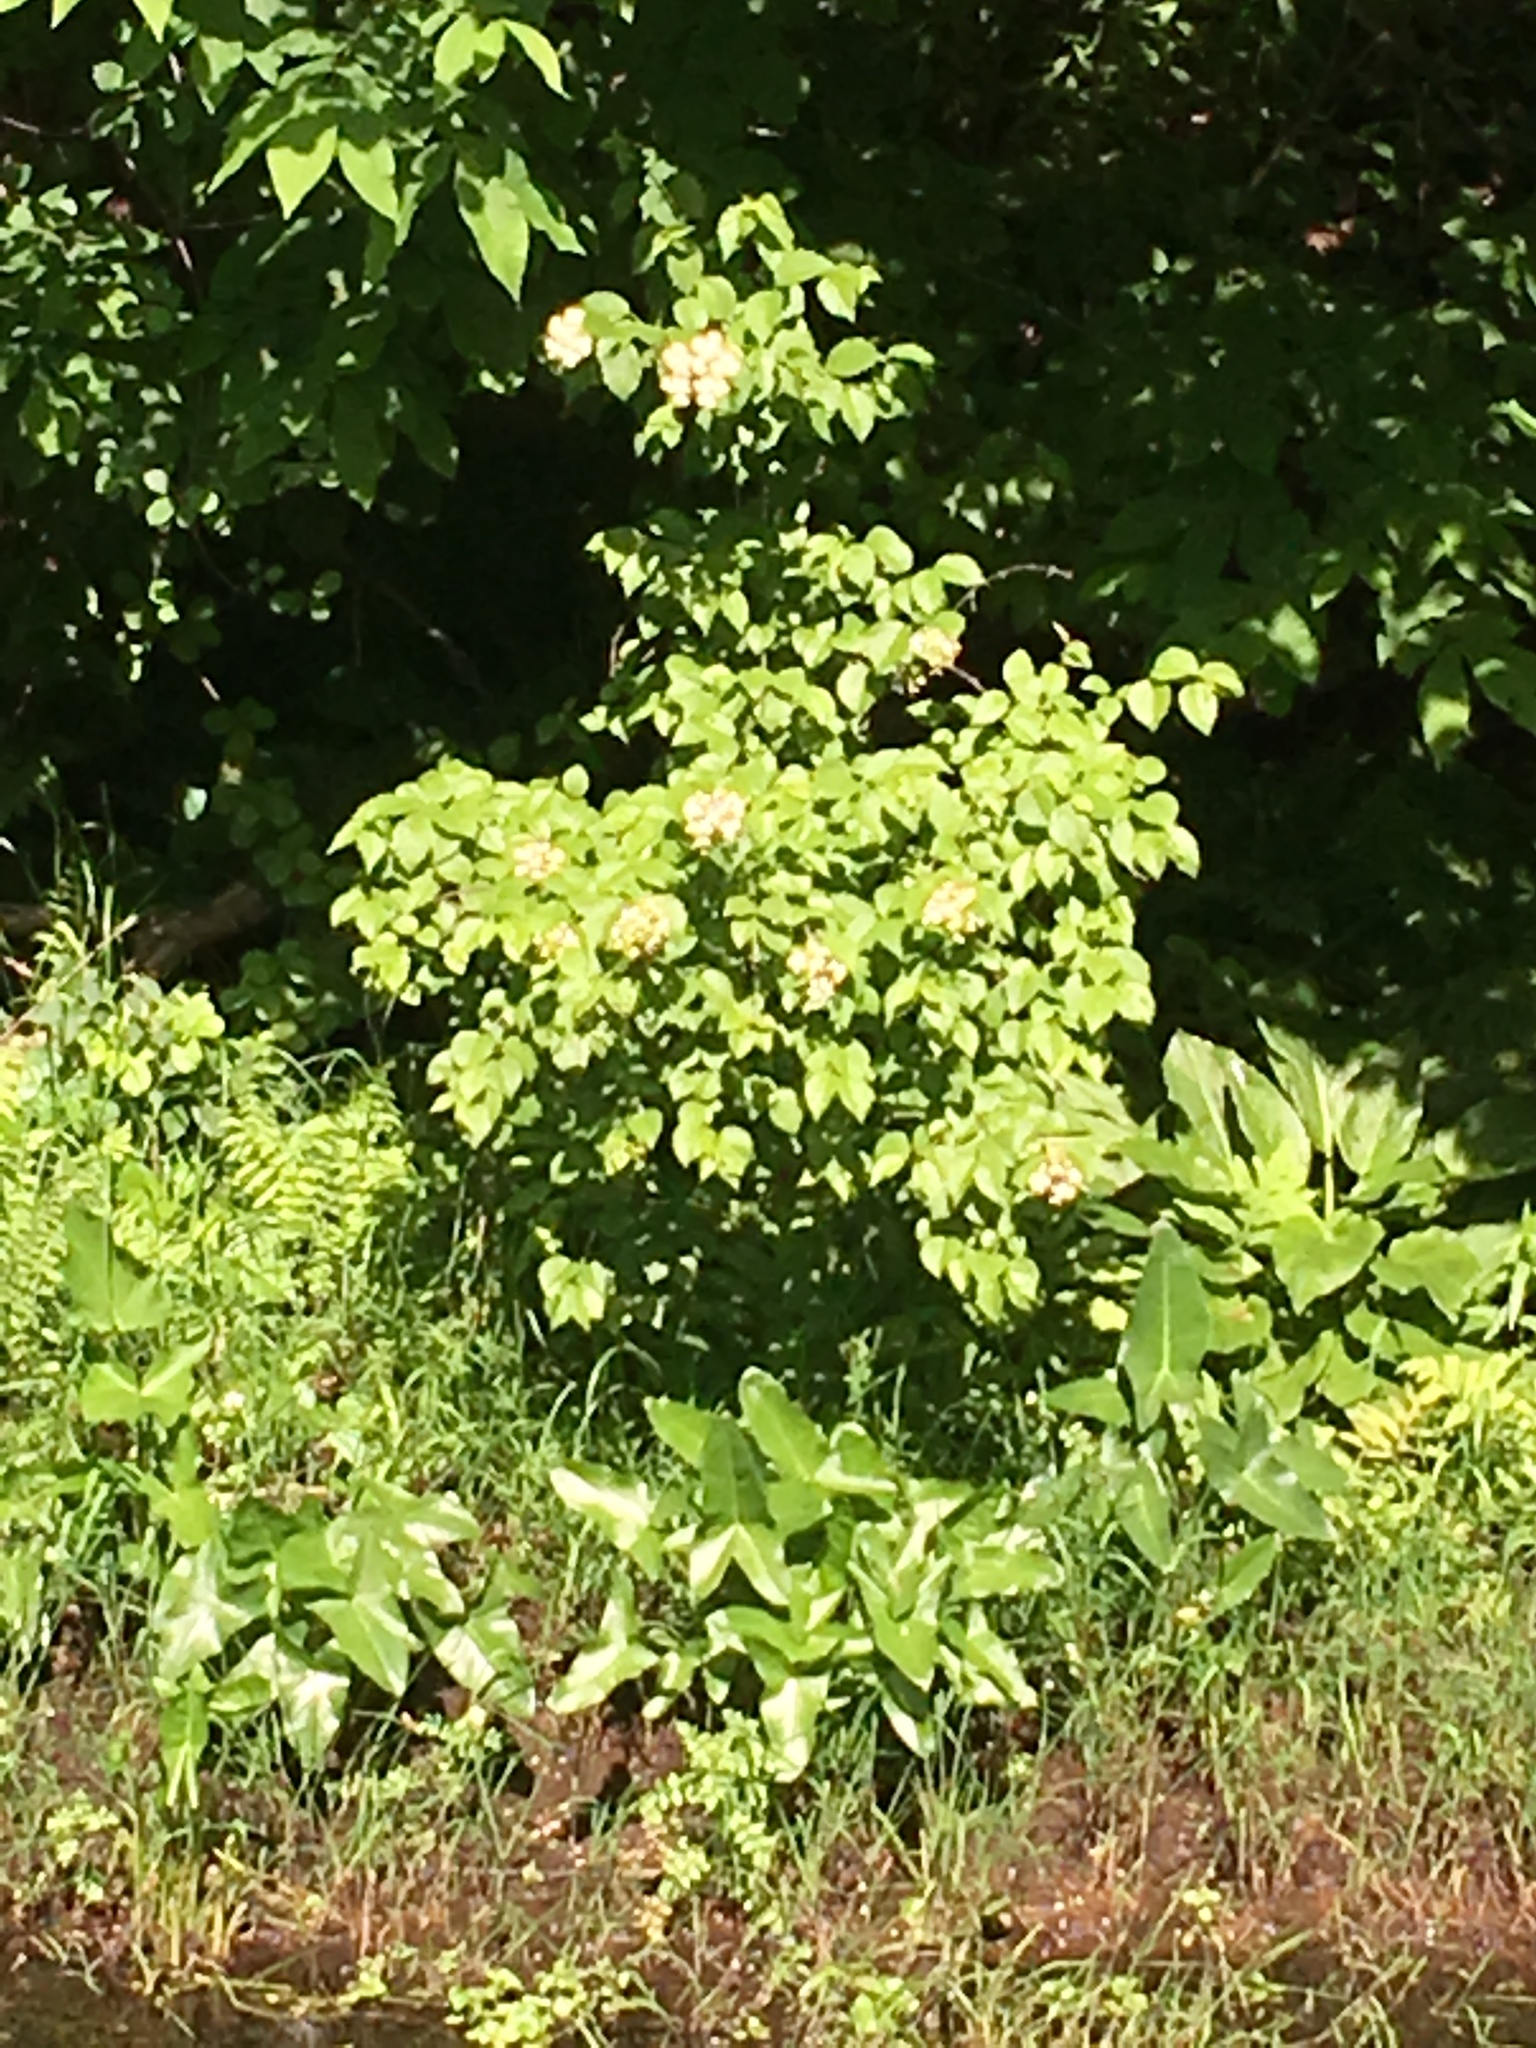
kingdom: Plantae
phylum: Tracheophyta
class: Magnoliopsida
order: Dipsacales
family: Viburnaceae
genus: Viburnum
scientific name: Viburnum dentatum
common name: Arrow-wood
